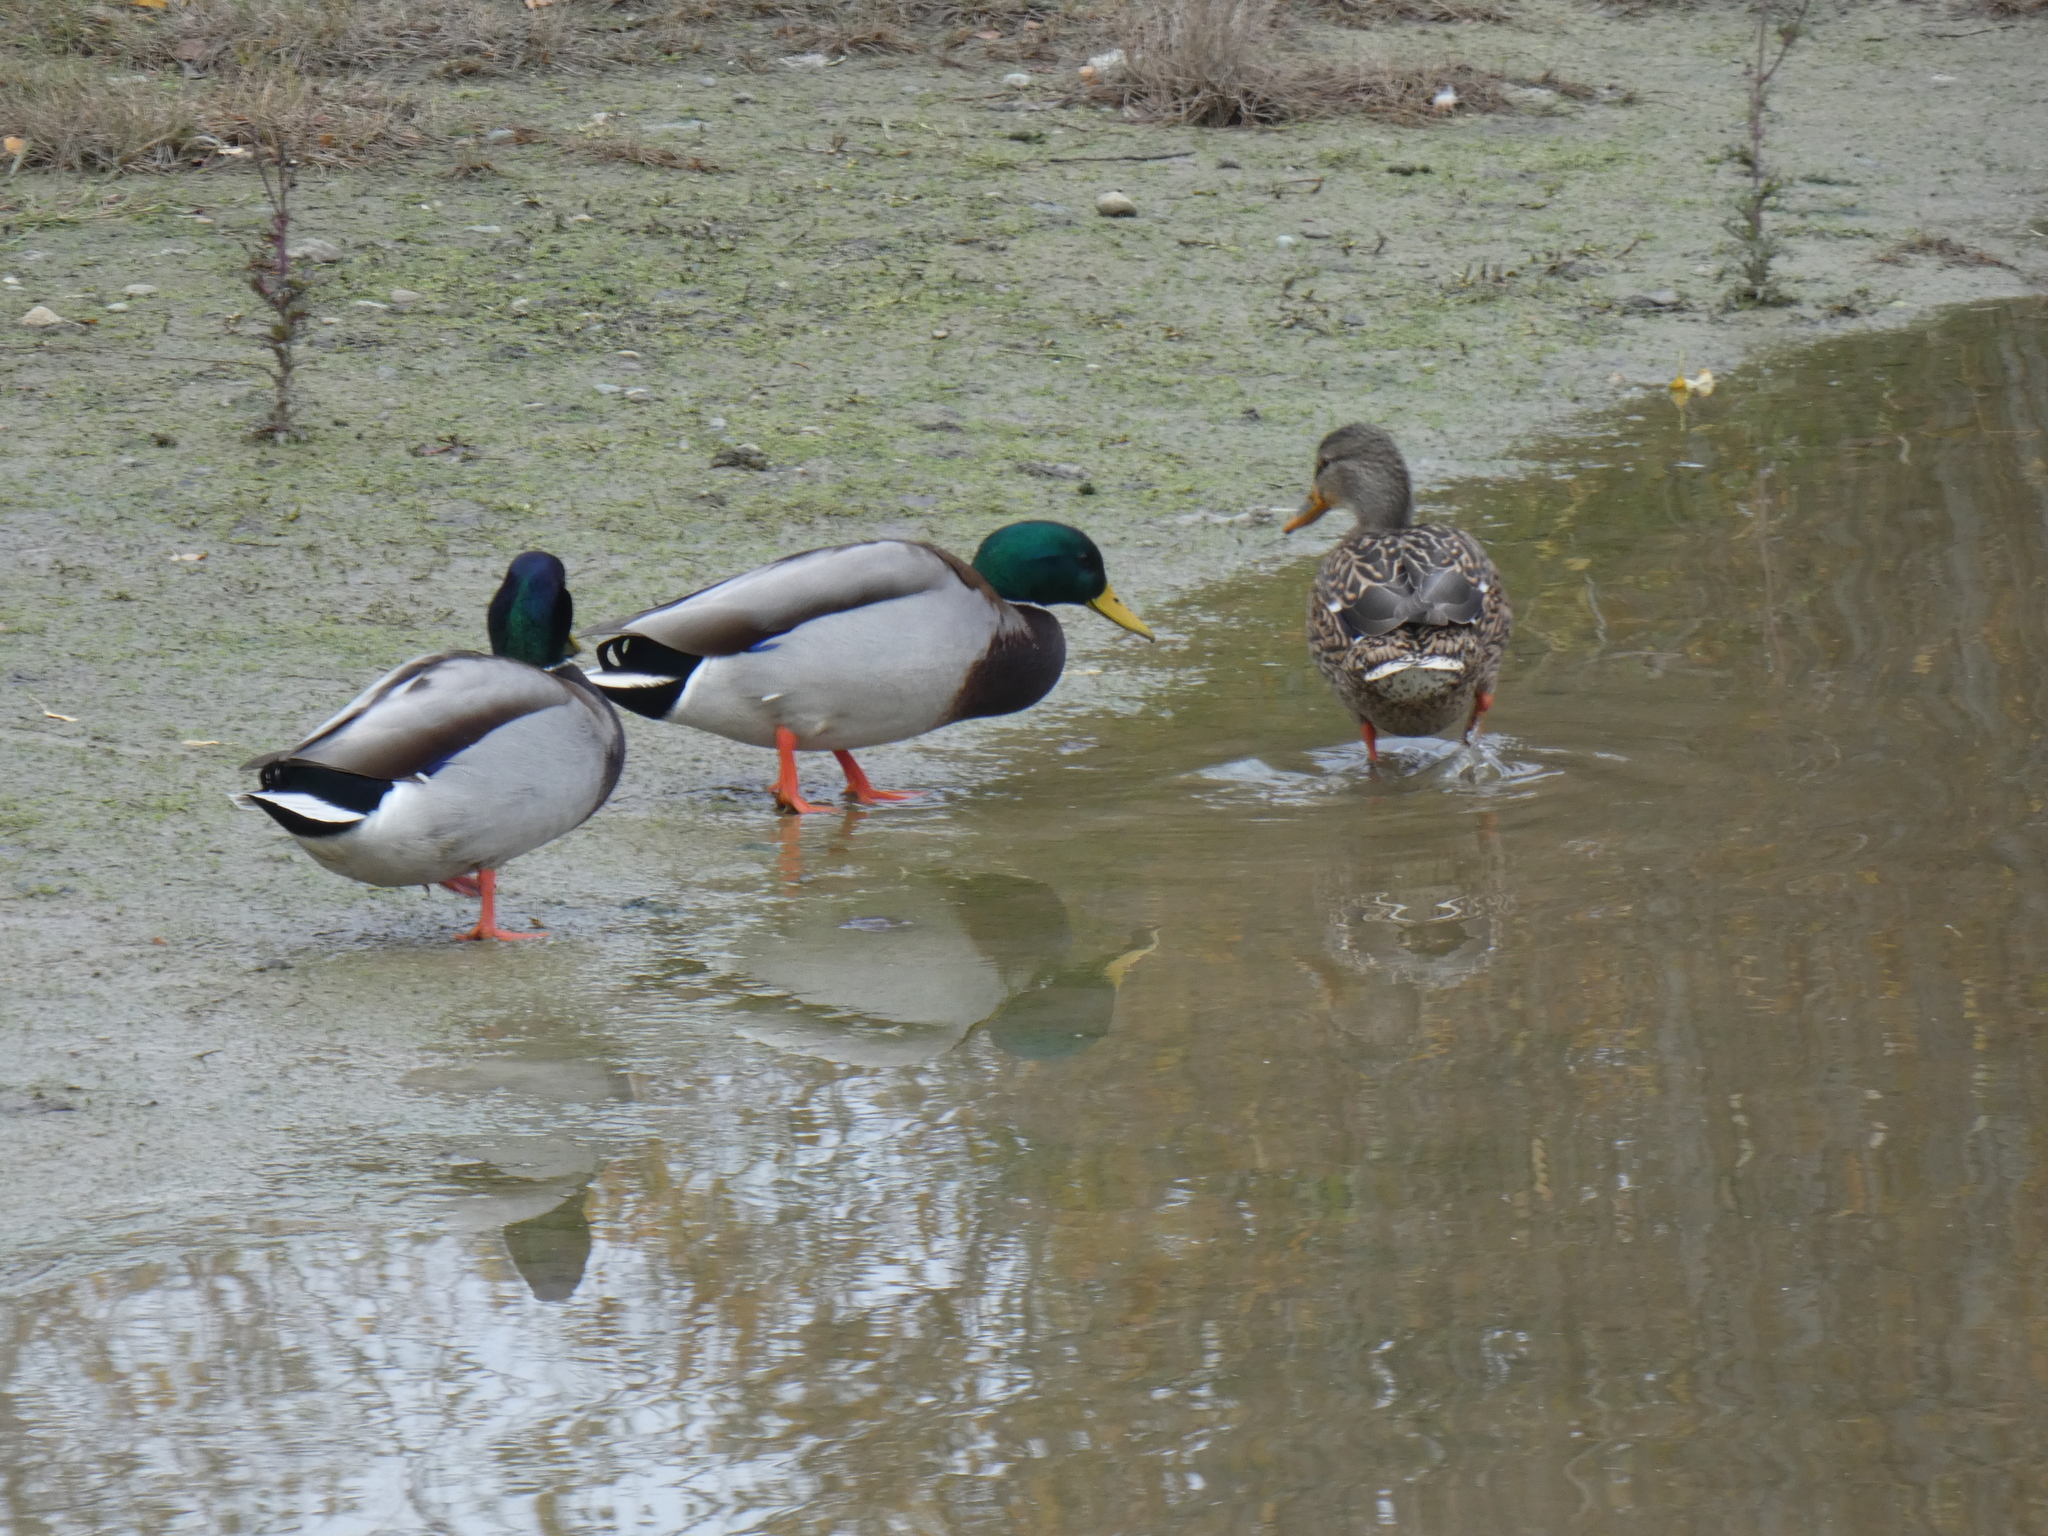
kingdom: Animalia
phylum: Chordata
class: Aves
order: Anseriformes
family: Anatidae
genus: Anas
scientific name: Anas platyrhynchos
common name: Mallard
